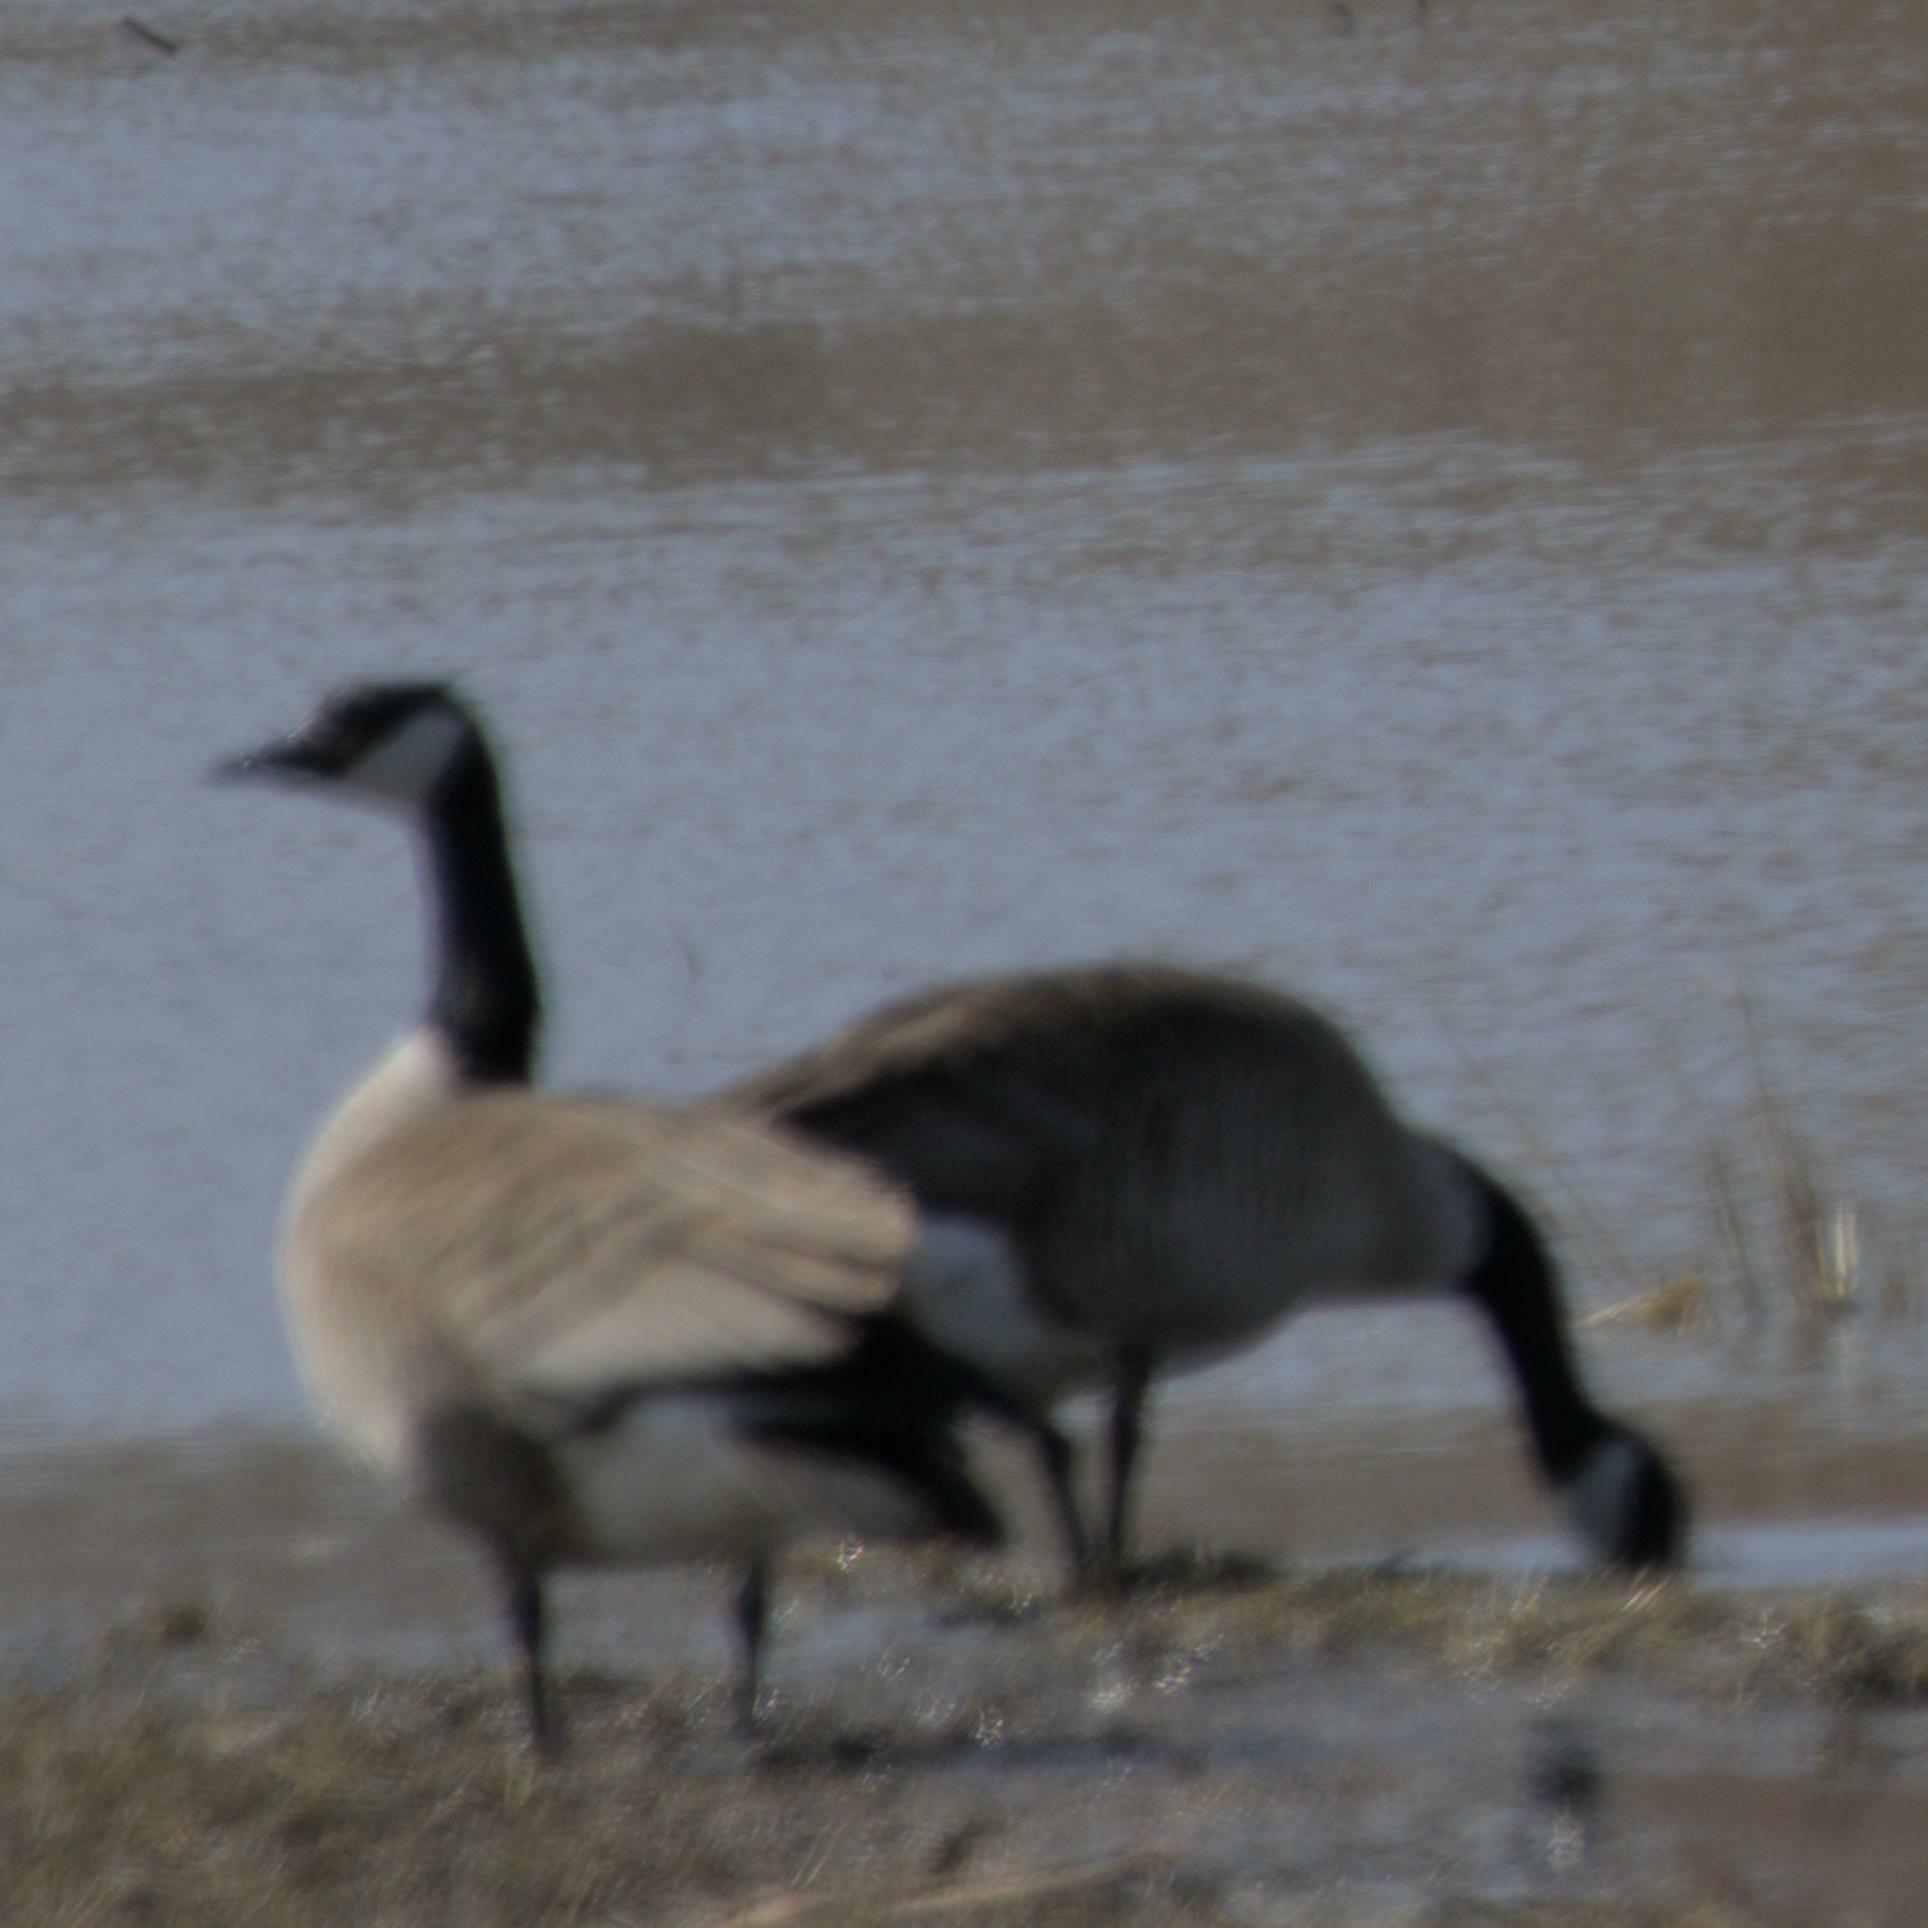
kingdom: Animalia
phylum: Chordata
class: Aves
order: Anseriformes
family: Anatidae
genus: Branta
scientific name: Branta canadensis
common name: Canada goose
